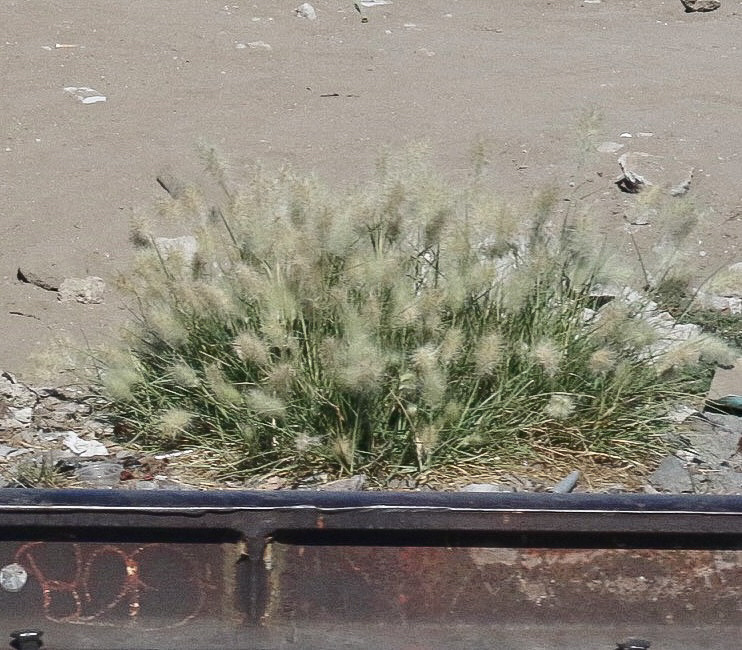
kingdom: Plantae
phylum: Tracheophyta
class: Liliopsida
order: Poales
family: Poaceae
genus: Cenchrus
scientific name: Cenchrus longisetus
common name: Feathertop
